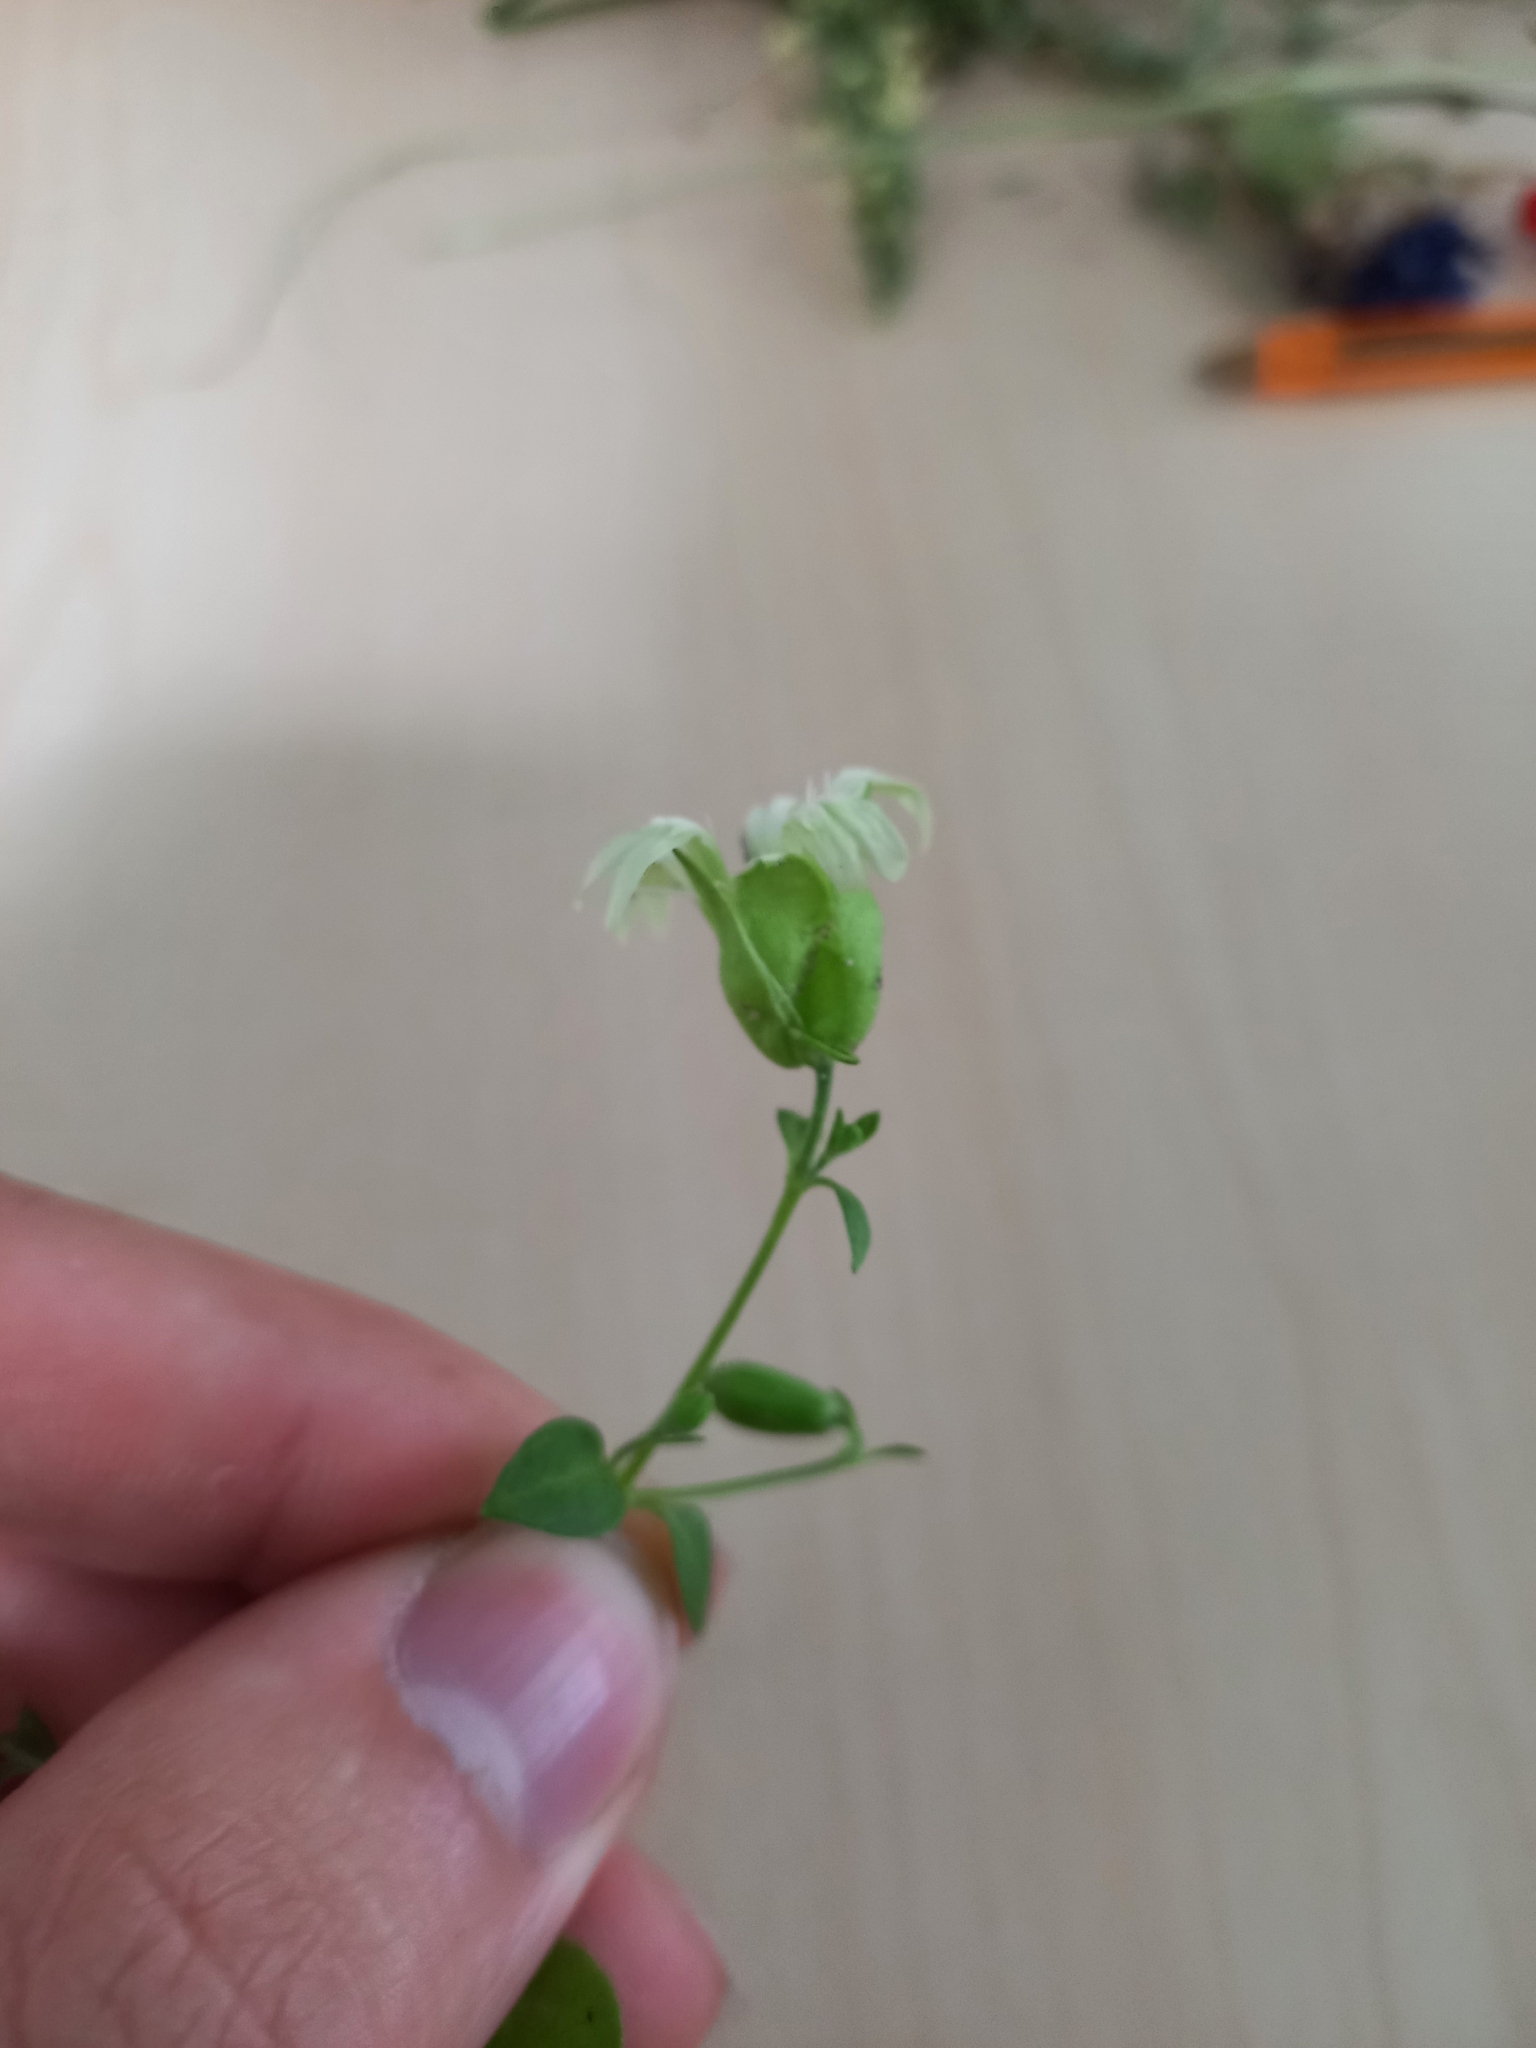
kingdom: Plantae
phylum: Tracheophyta
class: Magnoliopsida
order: Caryophyllales
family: Caryophyllaceae
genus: Silene
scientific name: Silene baccifera
